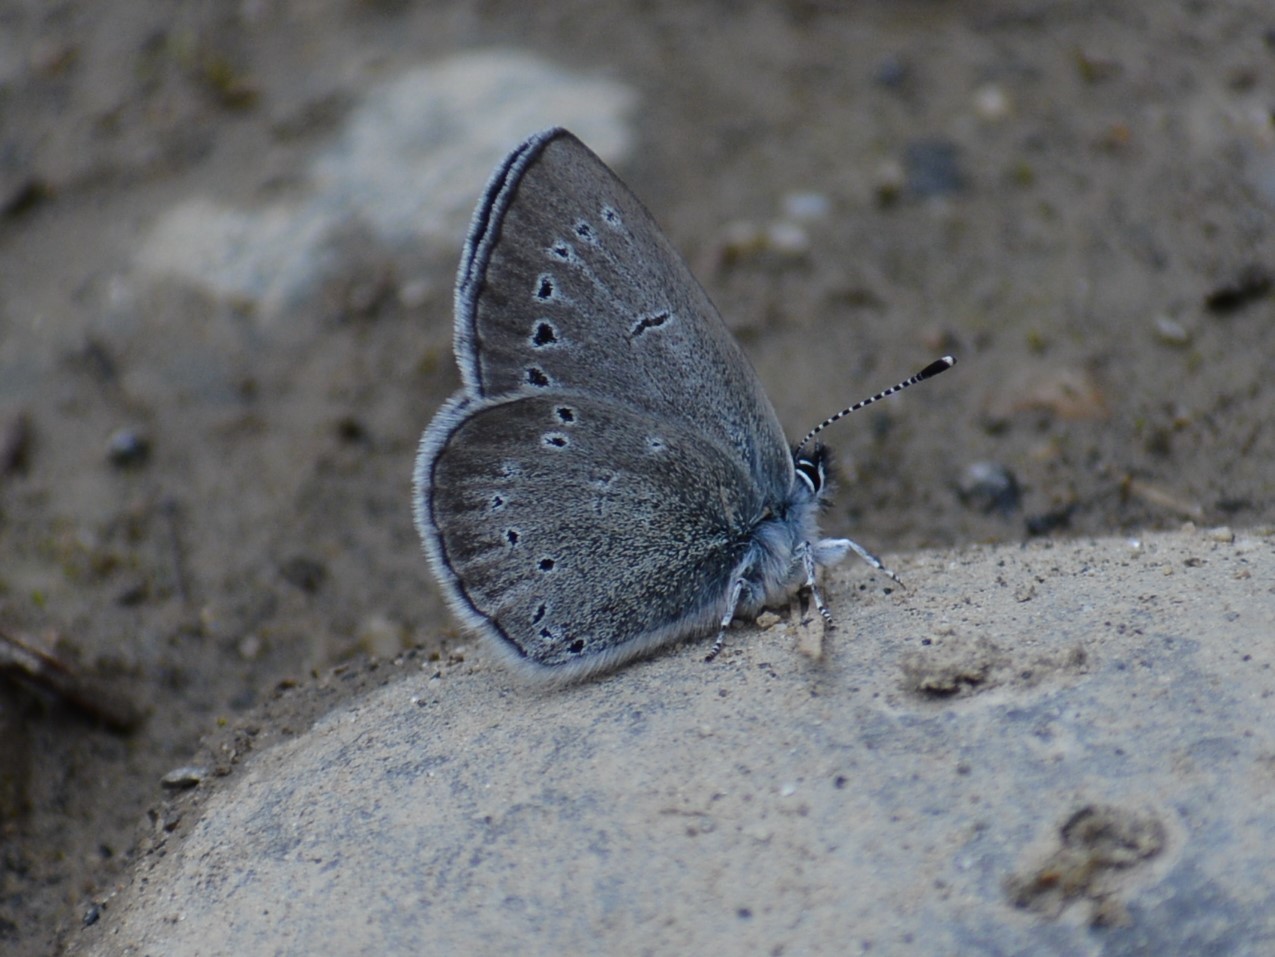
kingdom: Animalia
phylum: Arthropoda
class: Insecta
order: Lepidoptera
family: Lycaenidae
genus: Glaucopsyche
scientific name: Glaucopsyche lygdamus
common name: Silvery blue
